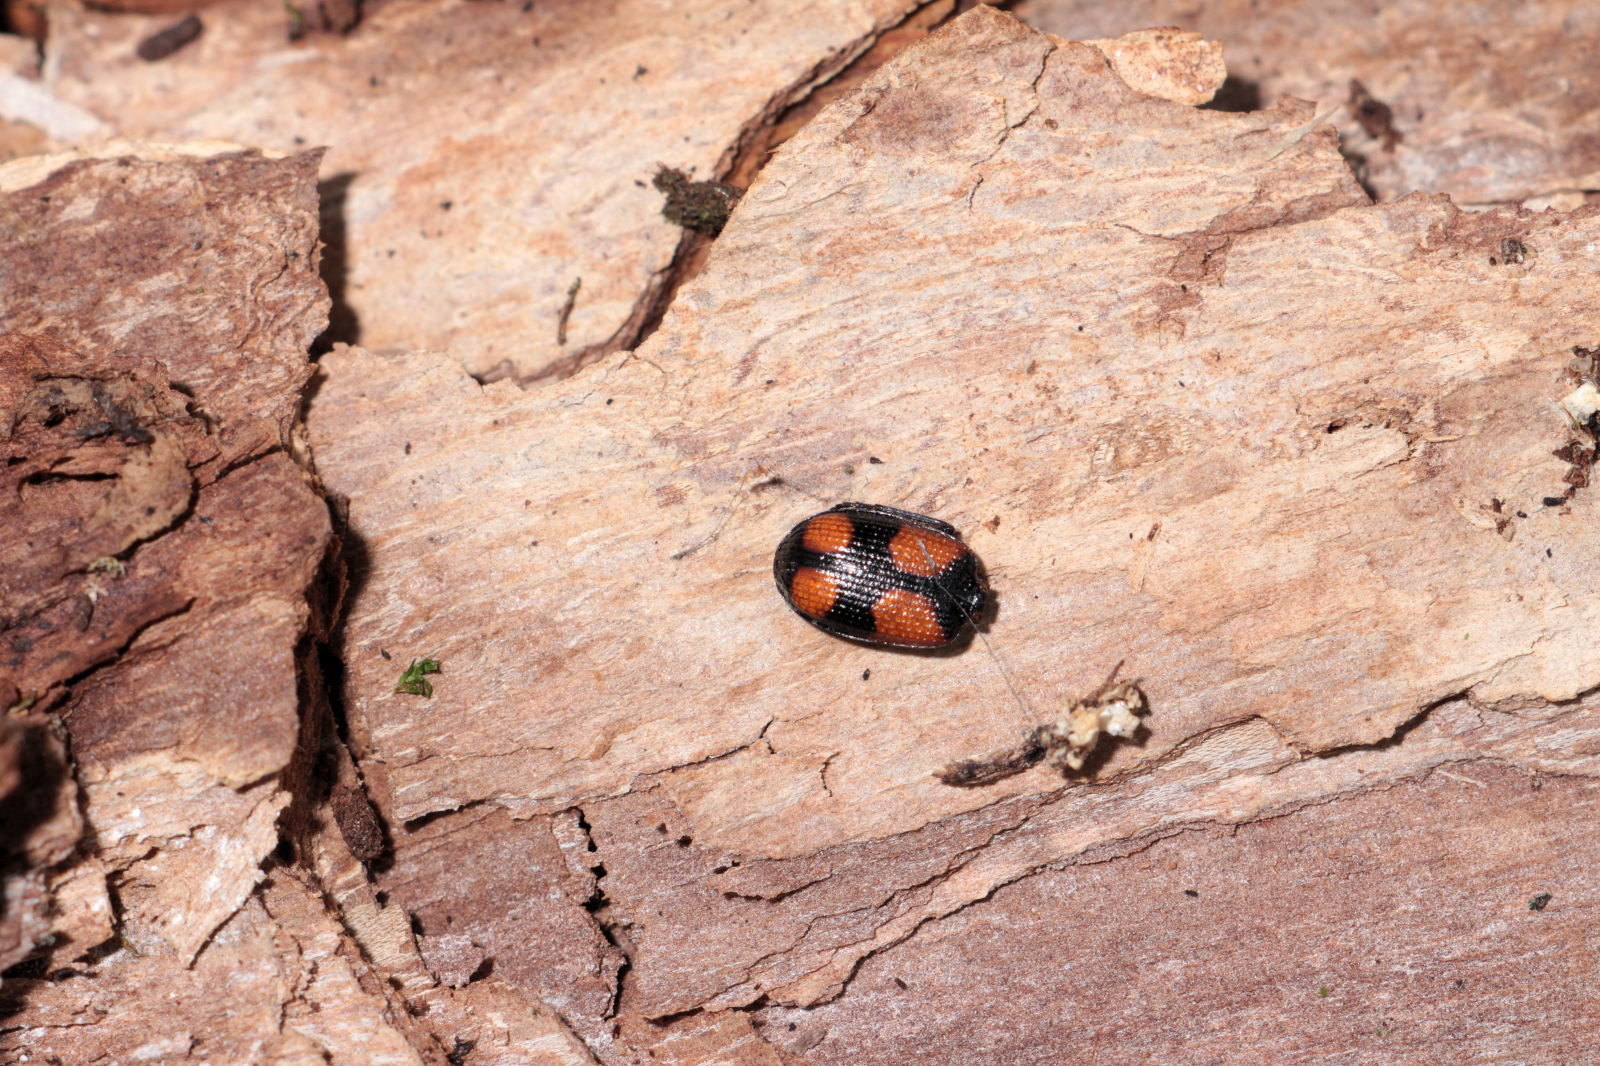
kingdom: Animalia
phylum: Arthropoda
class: Insecta
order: Coleoptera
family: Carabidae
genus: Panagaeus
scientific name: Panagaeus bipustulatus
